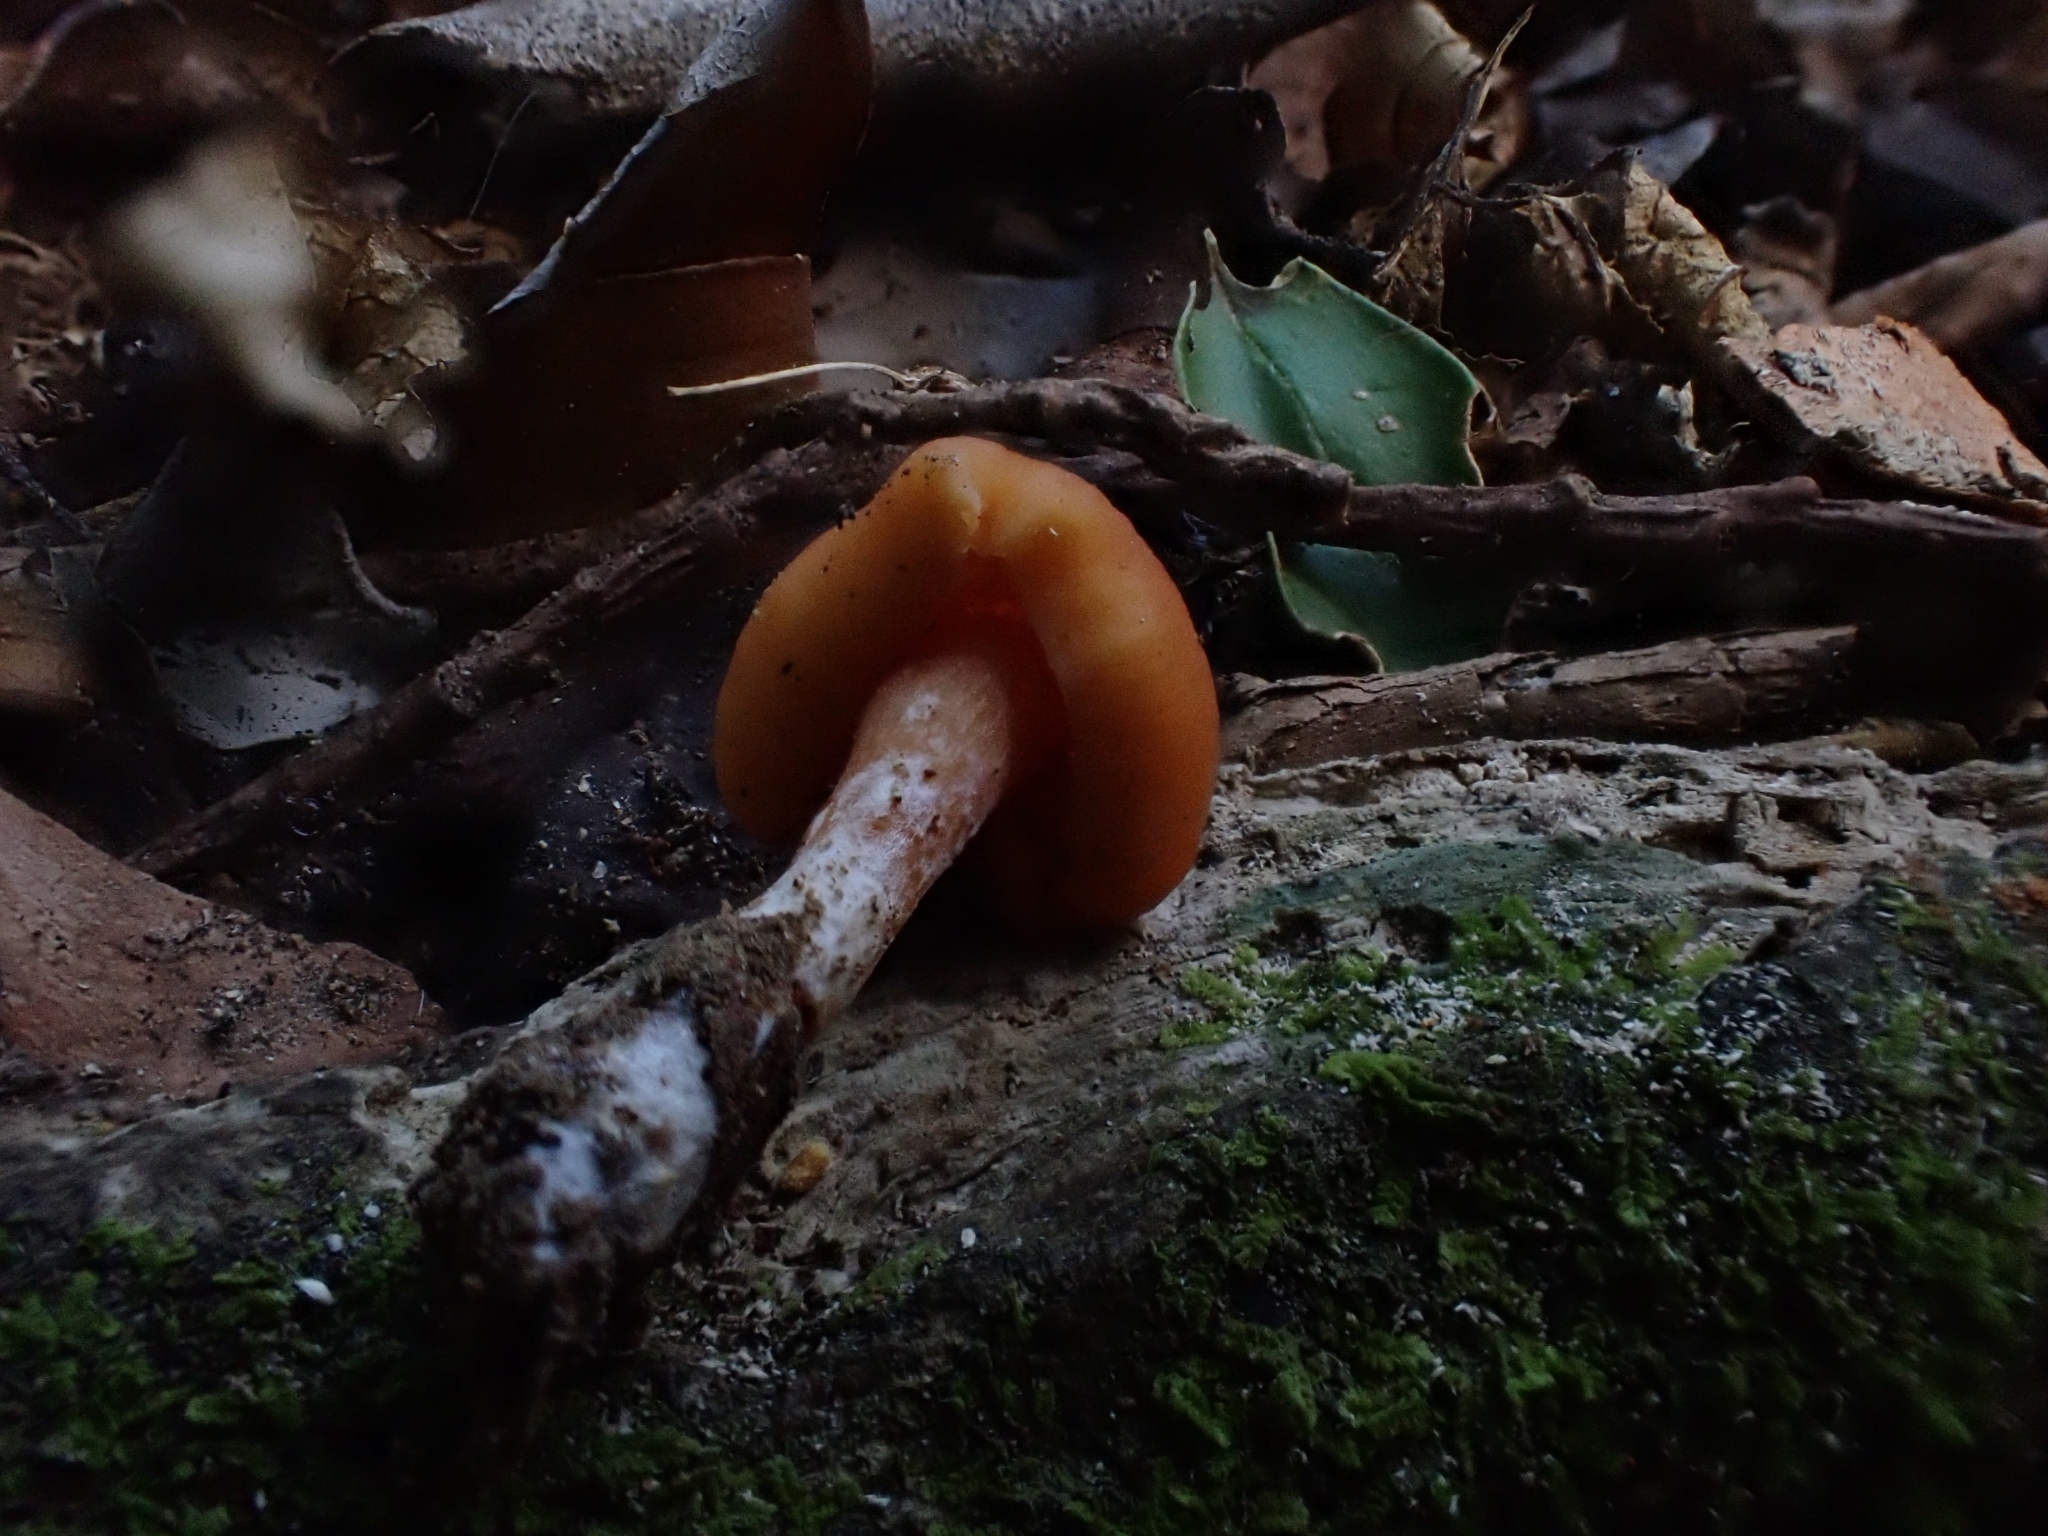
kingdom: Fungi
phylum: Basidiomycota
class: Agaricomycetes
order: Agaricales
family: Macrocystidiaceae
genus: Macrocystidia
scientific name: Macrocystidia reducta
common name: The fishy pouch
